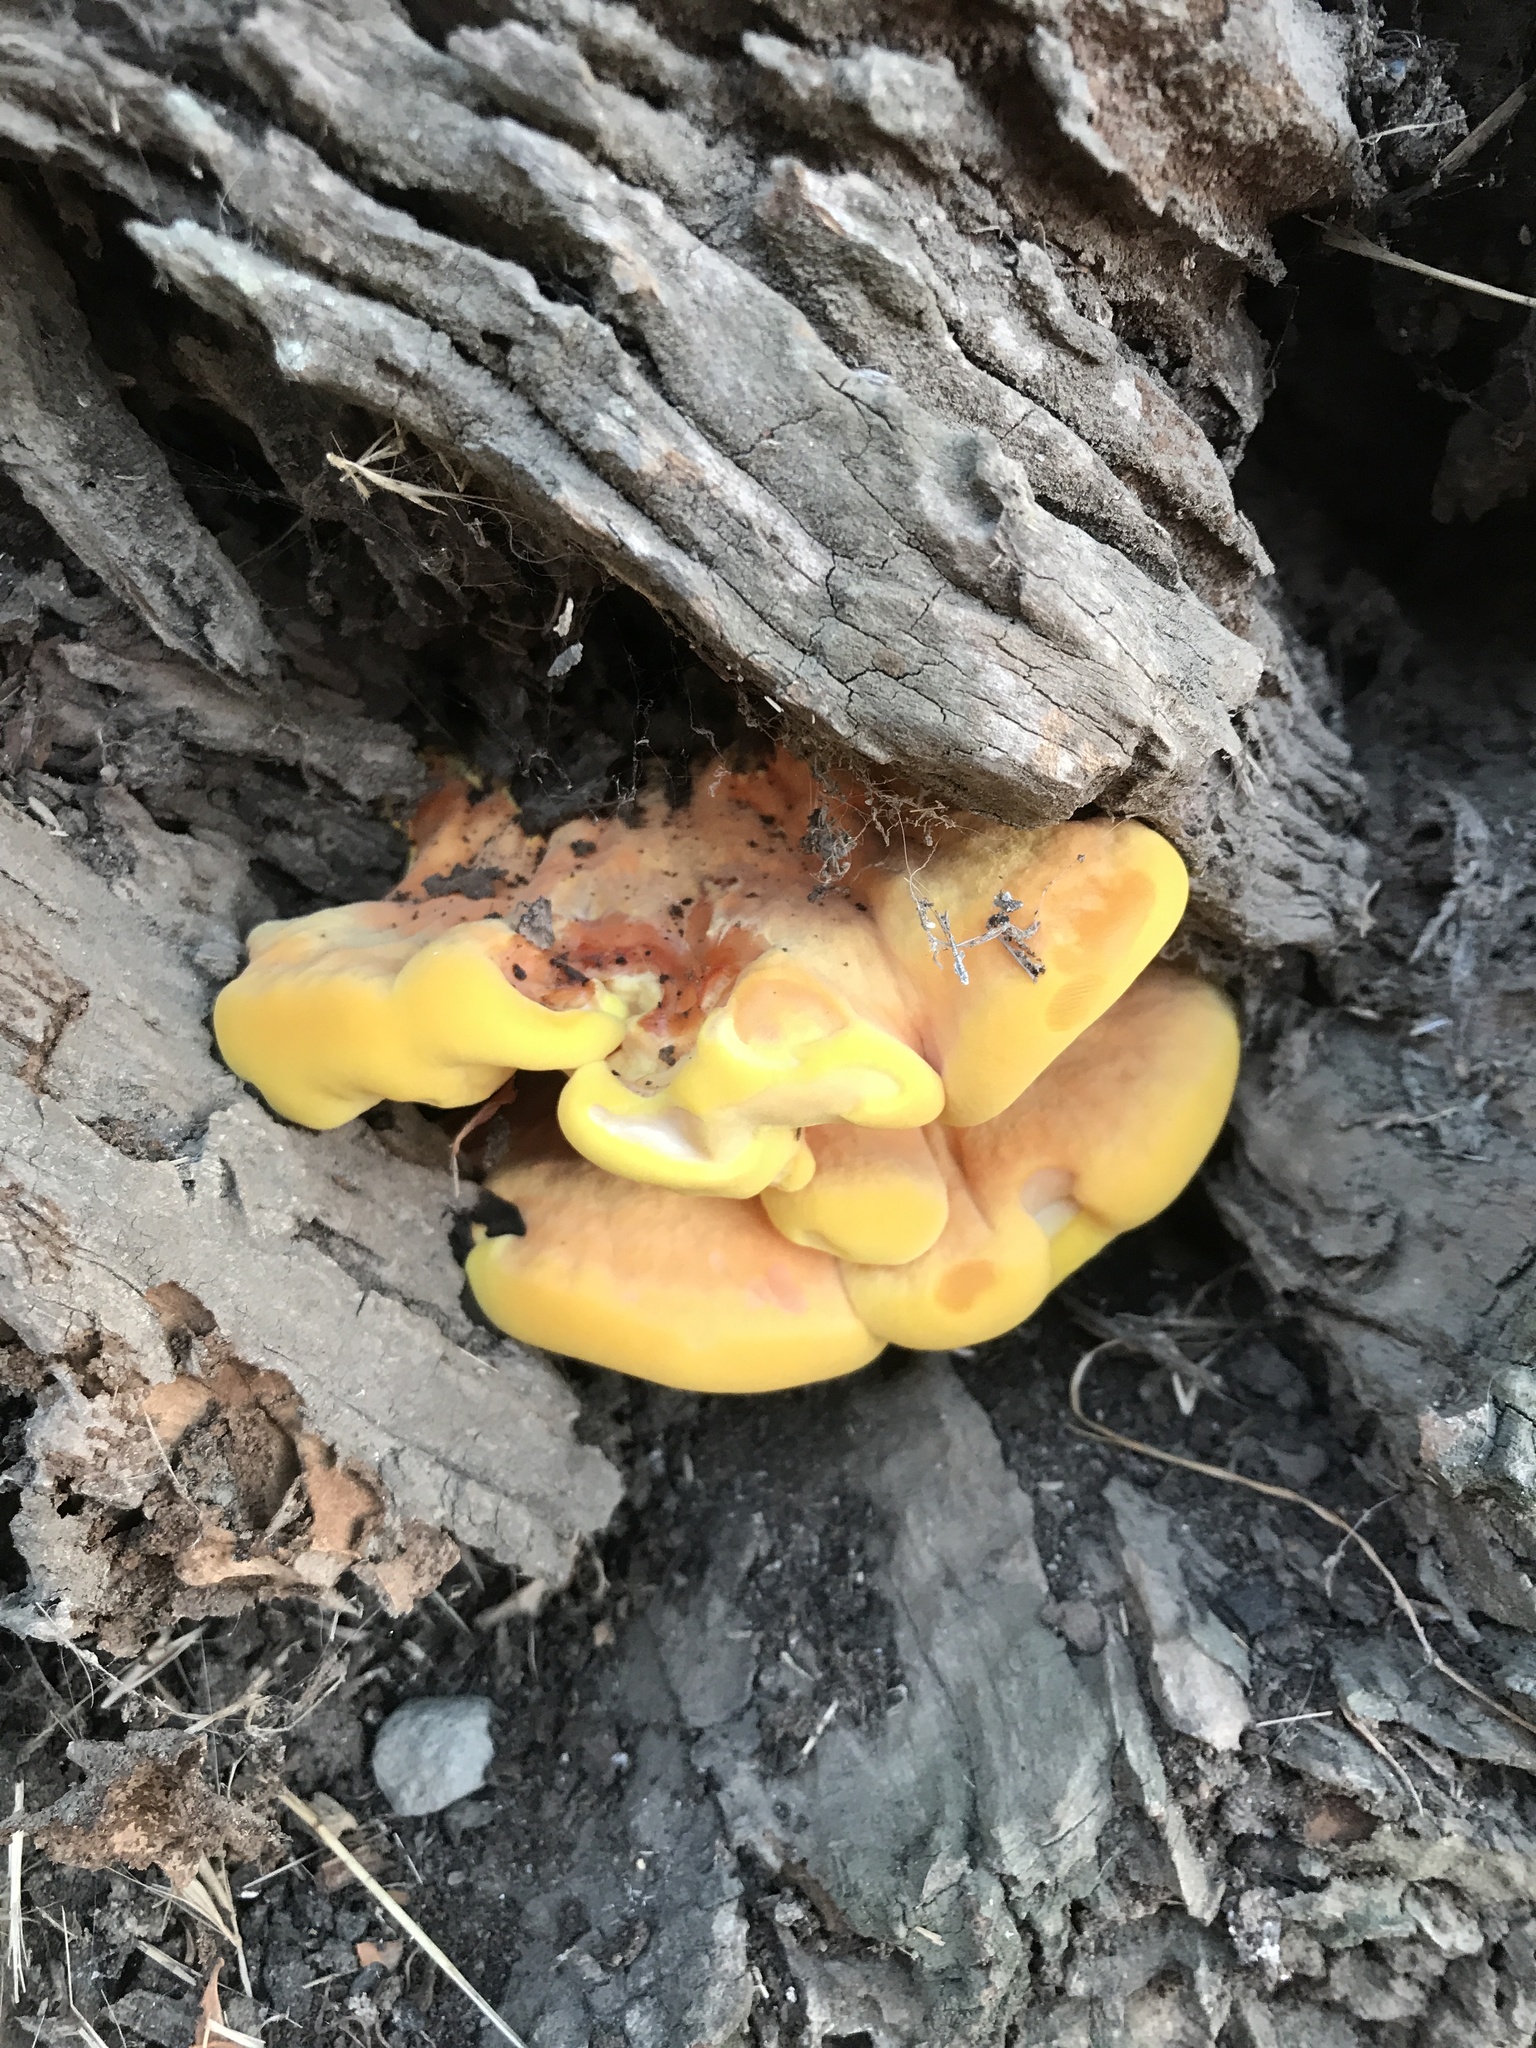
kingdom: Fungi
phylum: Basidiomycota
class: Agaricomycetes
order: Polyporales
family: Laetiporaceae
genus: Laetiporus
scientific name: Laetiporus gilbertsonii
